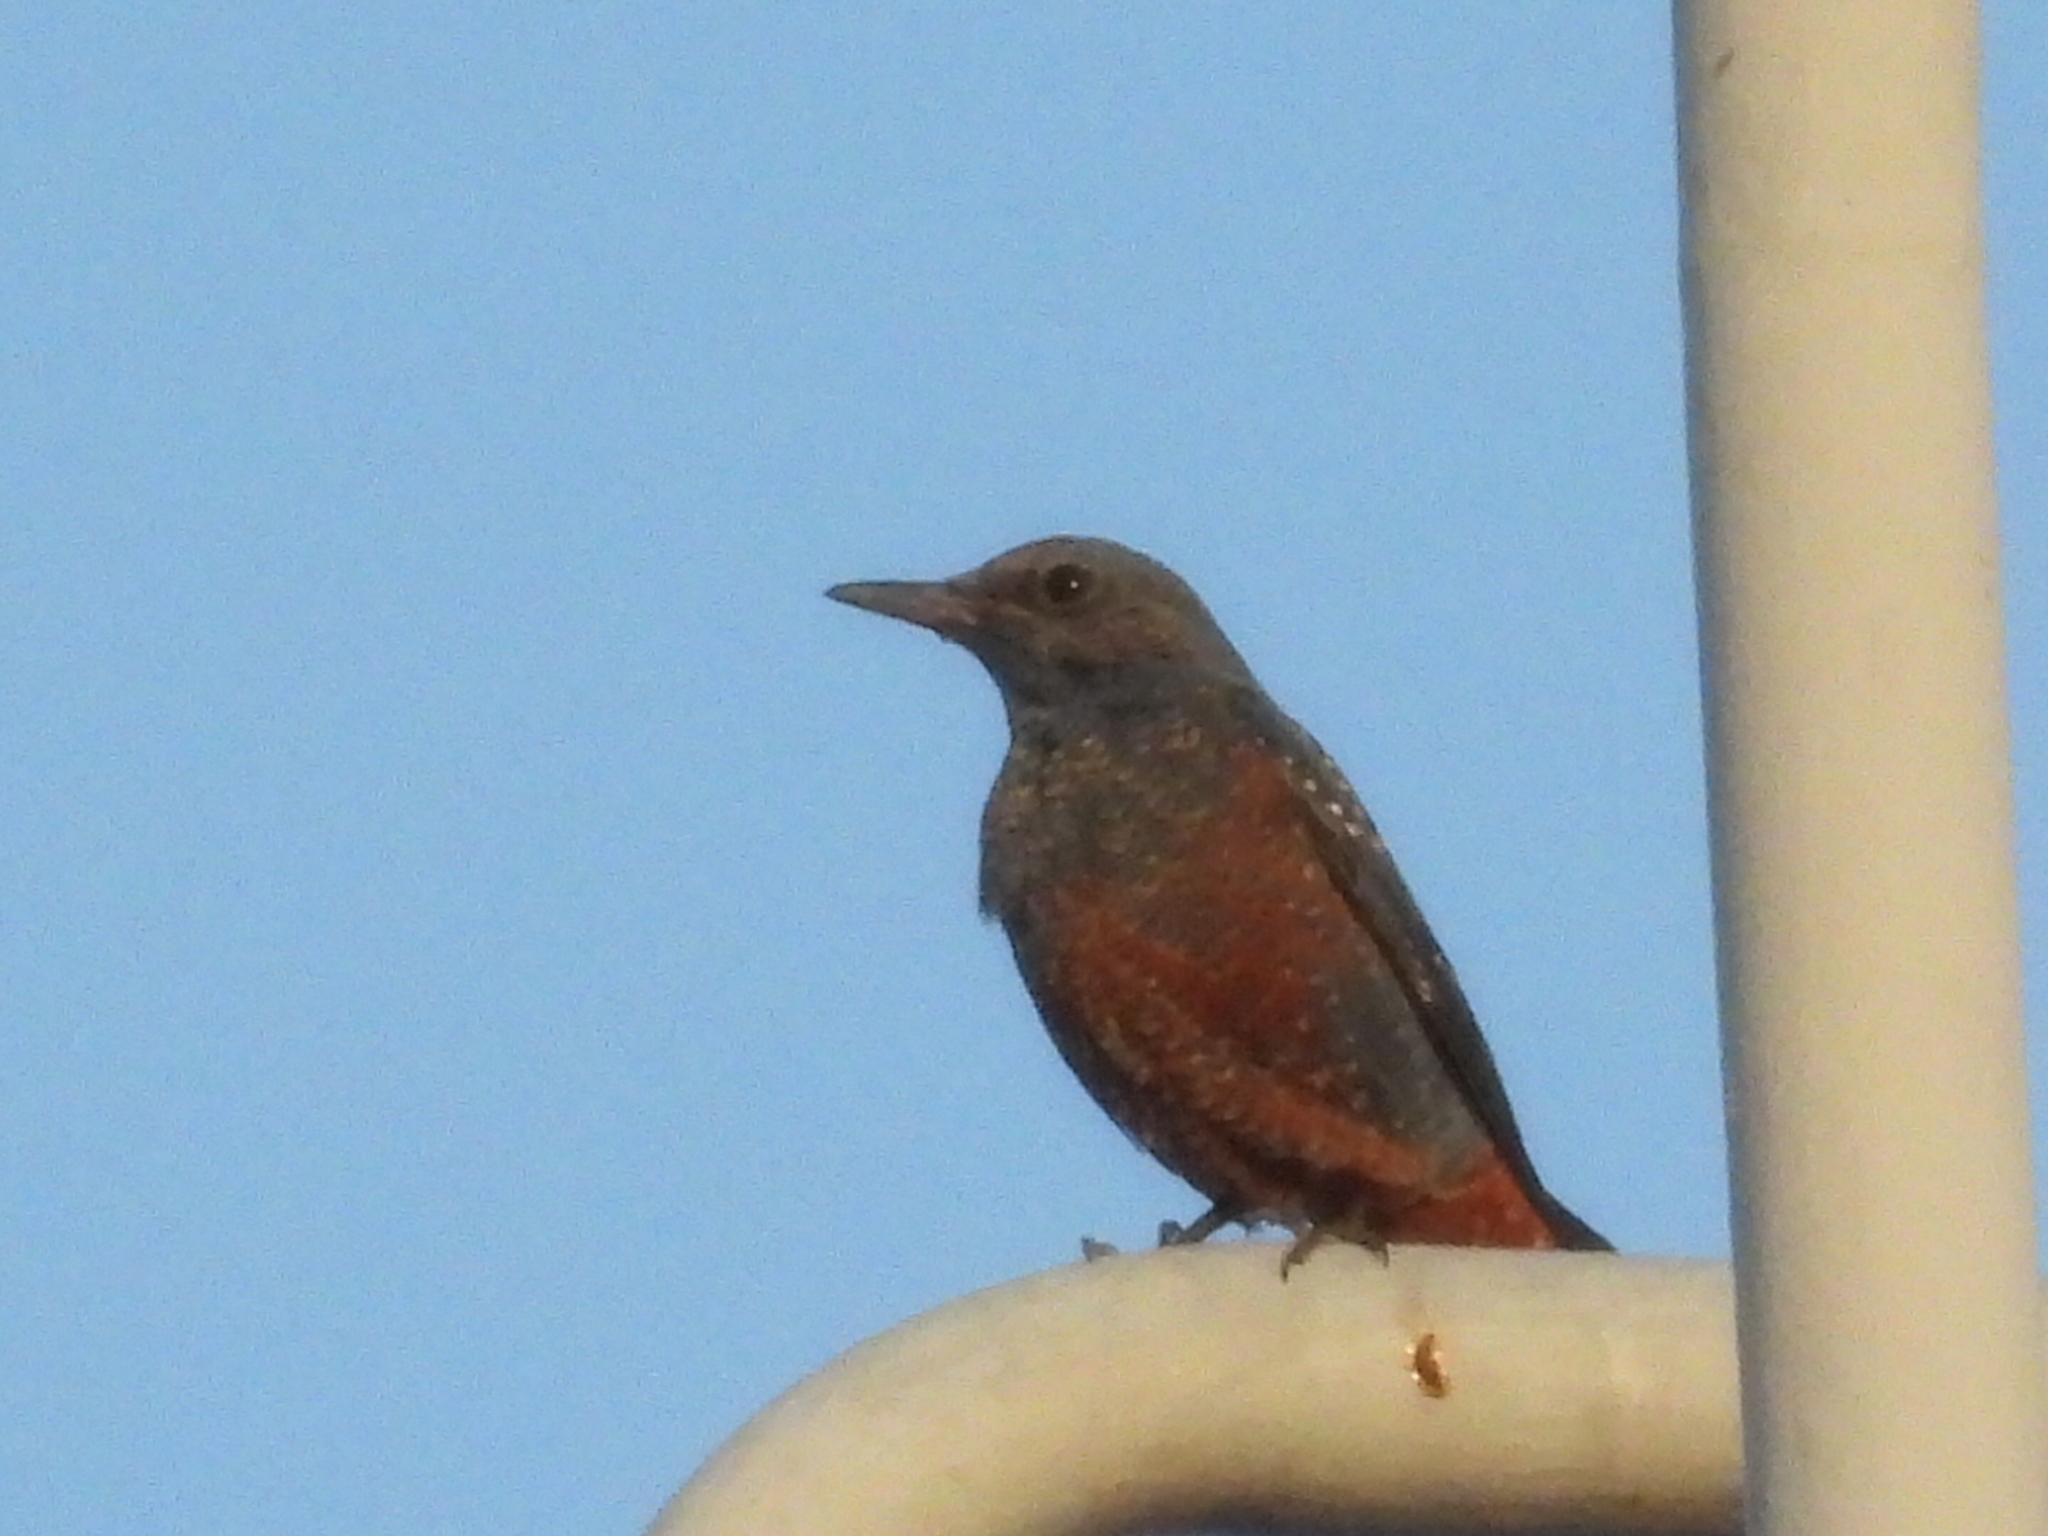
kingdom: Animalia
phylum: Chordata
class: Aves
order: Passeriformes
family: Muscicapidae
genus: Monticola
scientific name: Monticola solitarius
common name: Blue rock thrush
